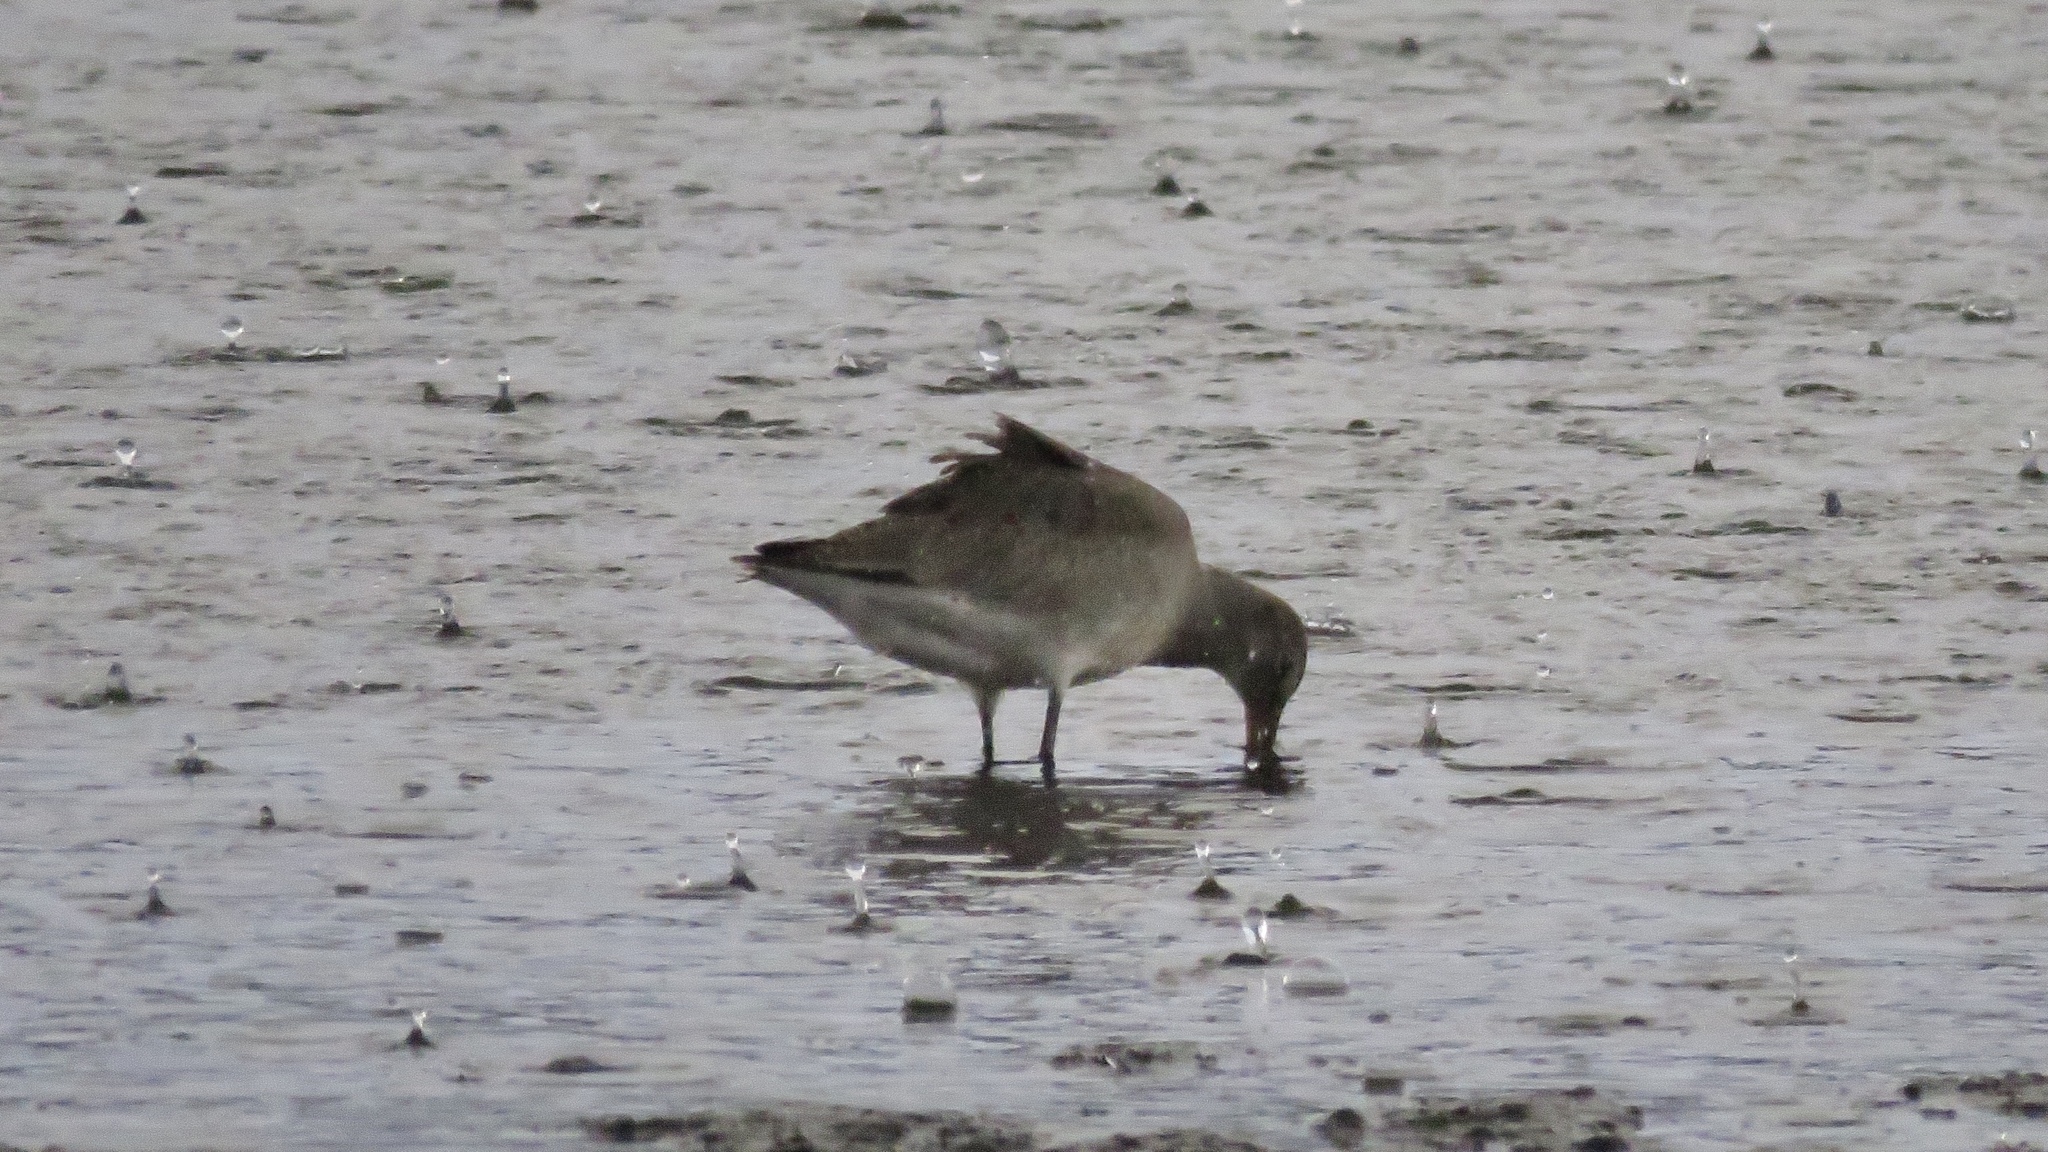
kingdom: Animalia
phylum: Chordata
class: Aves
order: Charadriiformes
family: Scolopacidae
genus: Limosa
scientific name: Limosa haemastica
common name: Hudsonian godwit
